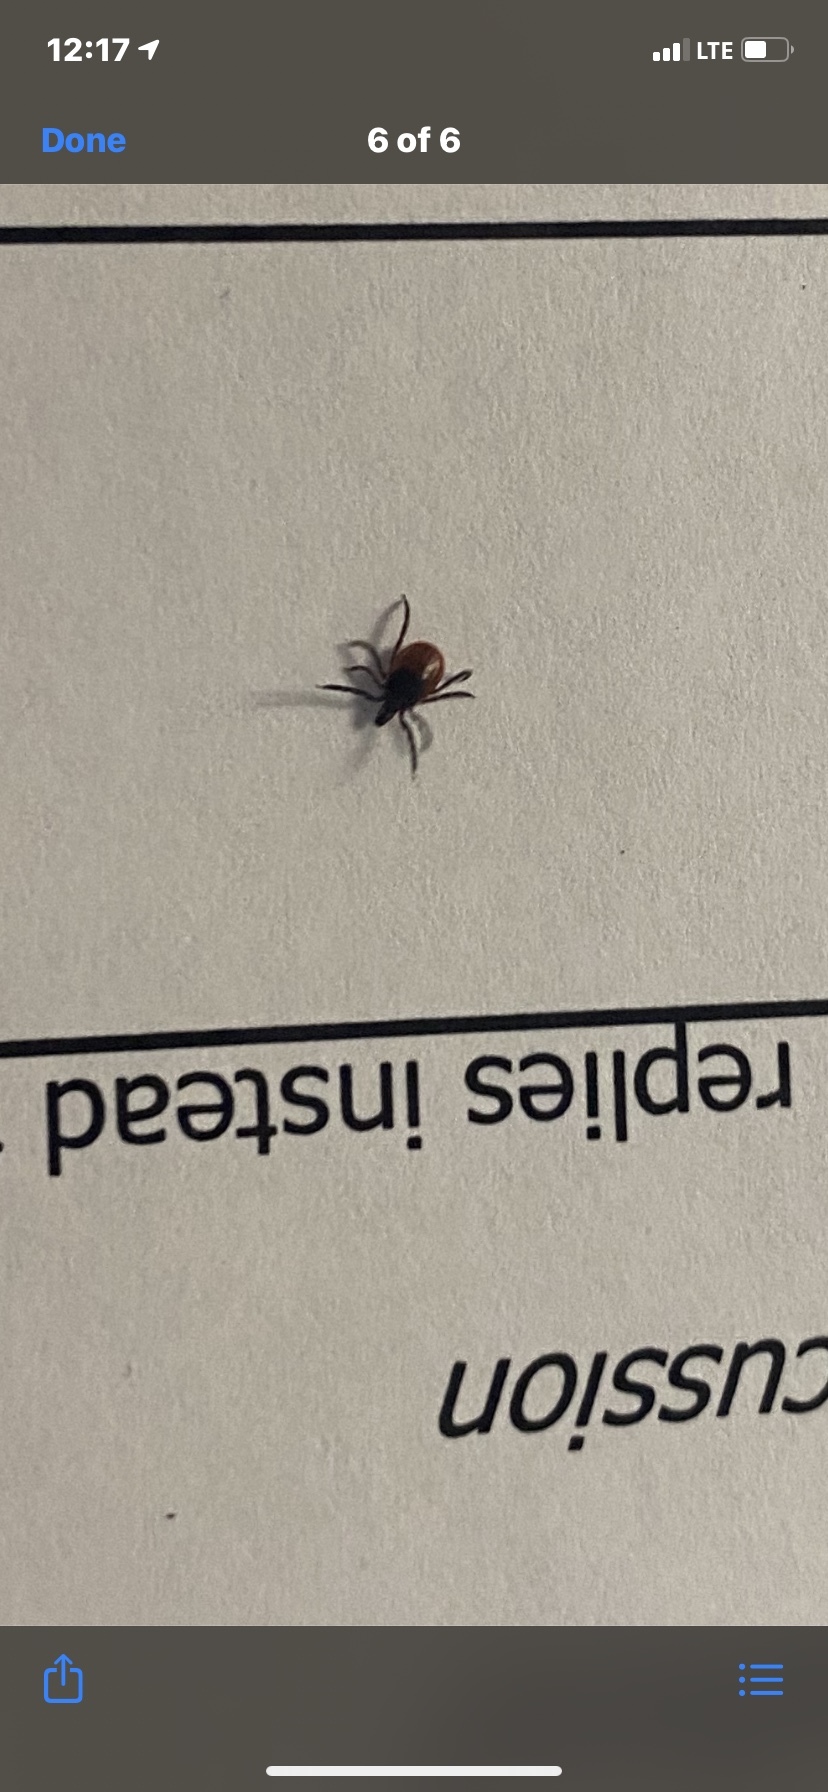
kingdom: Animalia
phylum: Arthropoda
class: Arachnida
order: Ixodida
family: Ixodidae
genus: Ixodes
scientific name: Ixodes scapularis
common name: Black legged tick
